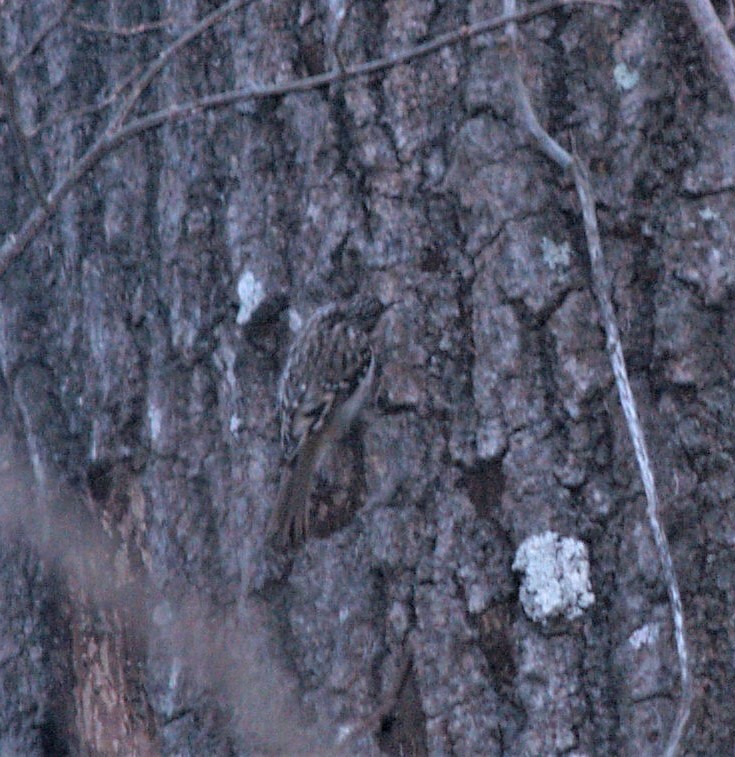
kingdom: Animalia
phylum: Chordata
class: Aves
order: Passeriformes
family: Certhiidae
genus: Certhia
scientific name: Certhia americana
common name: Brown creeper
